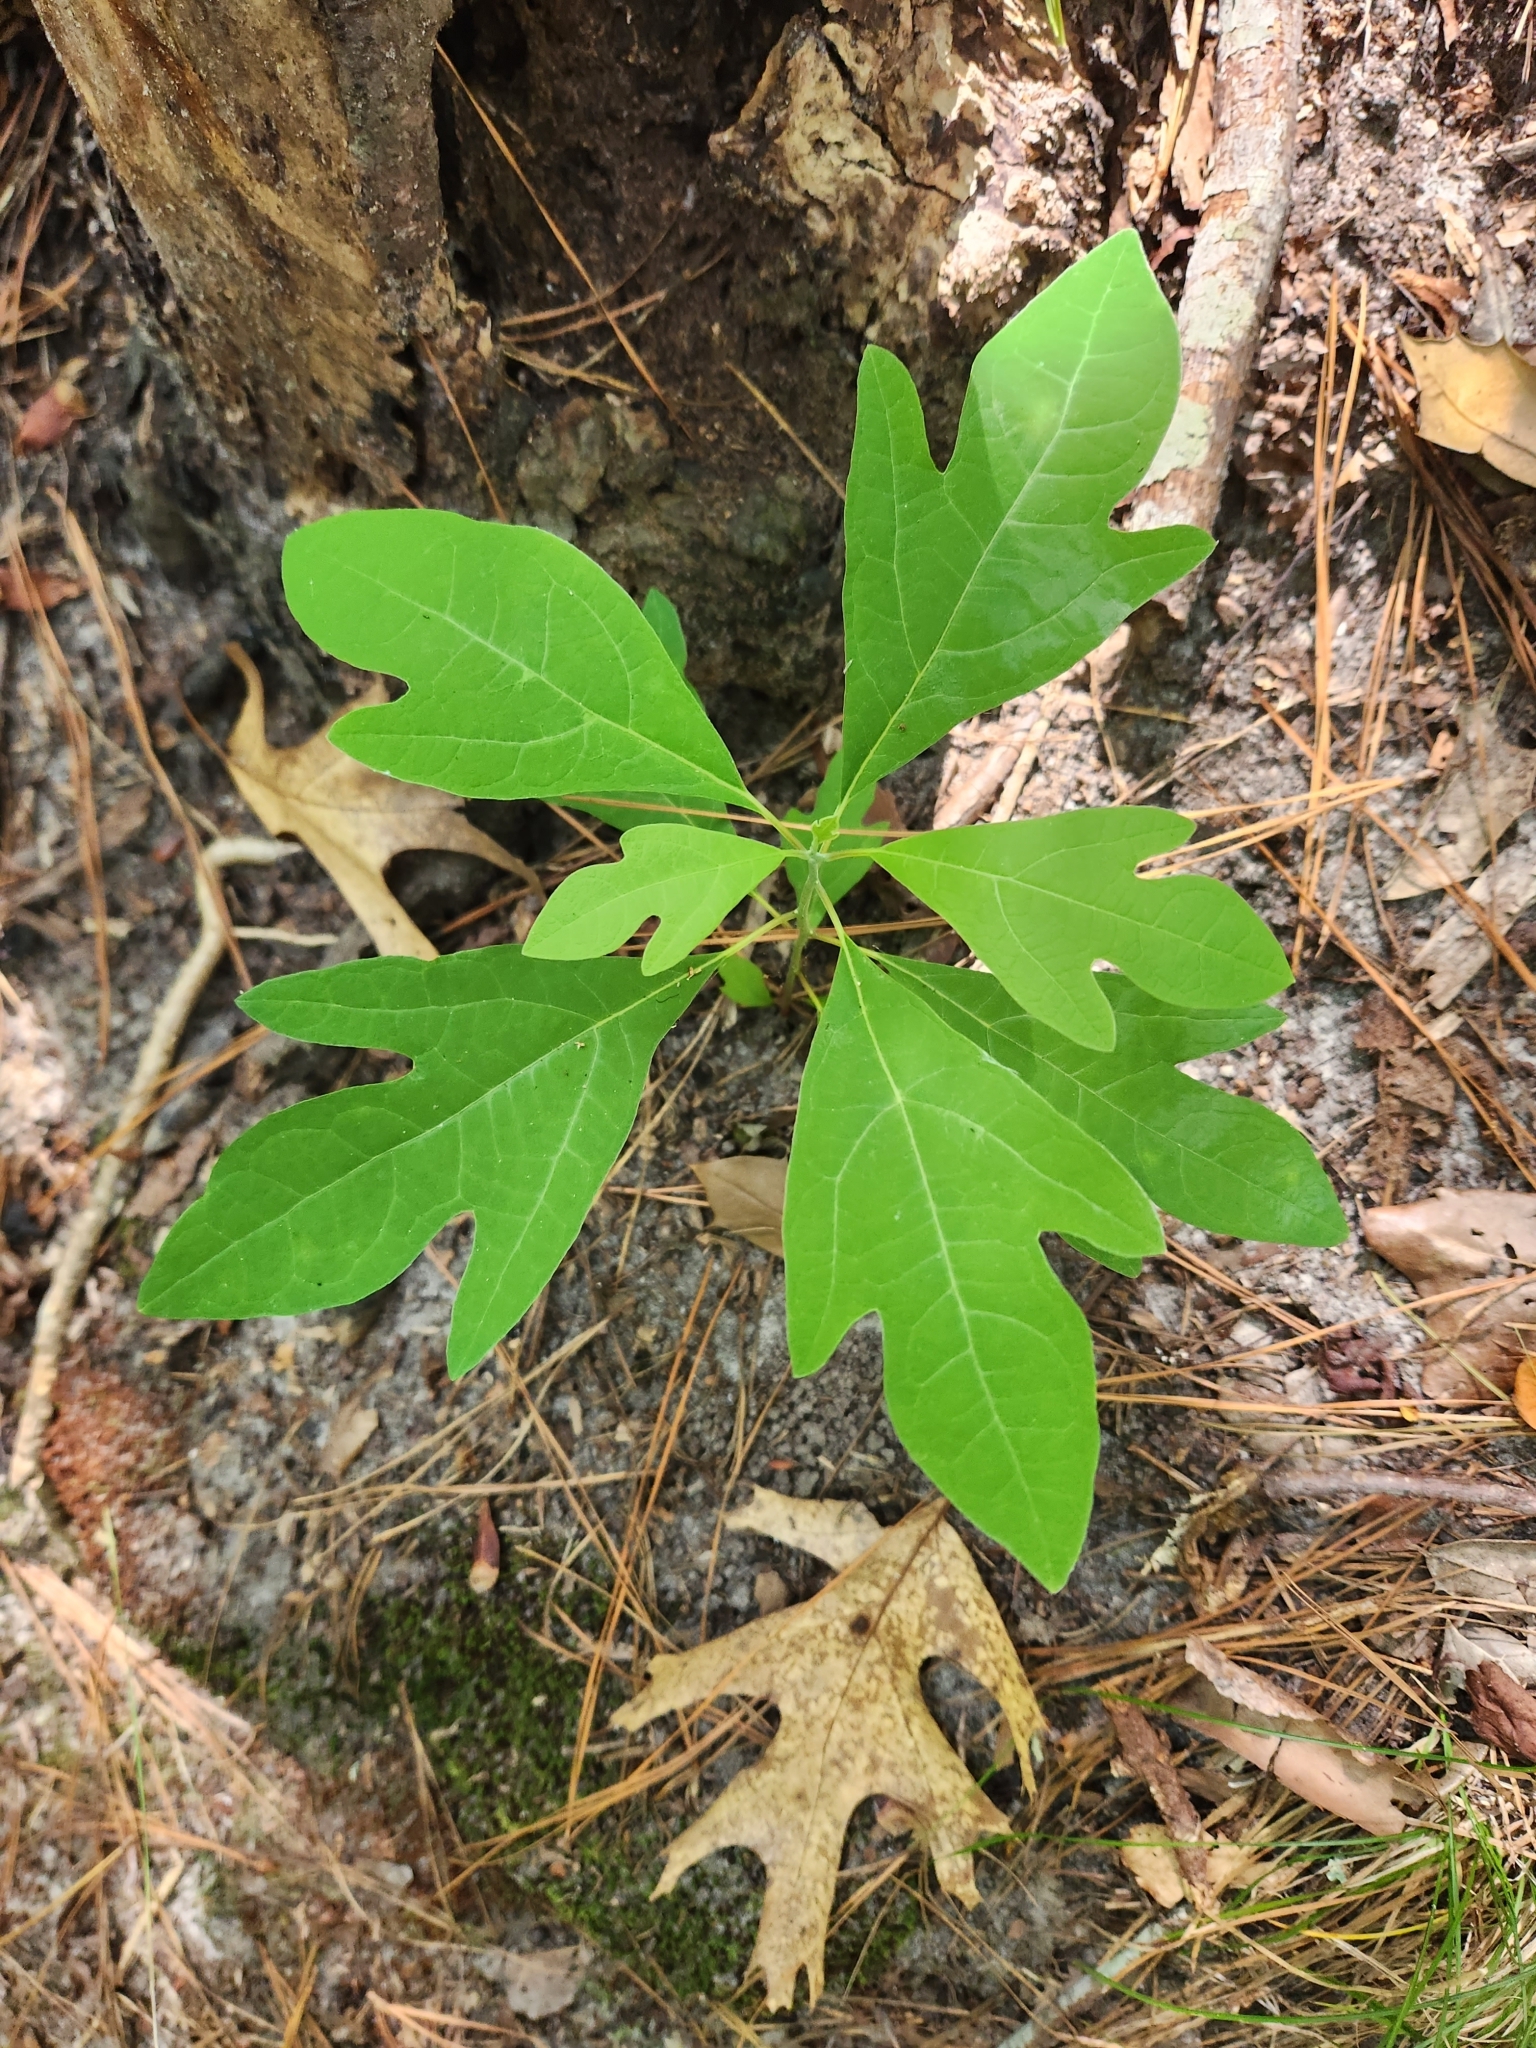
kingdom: Plantae
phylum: Tracheophyta
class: Magnoliopsida
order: Laurales
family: Lauraceae
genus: Sassafras
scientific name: Sassafras albidum
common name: Sassafras
